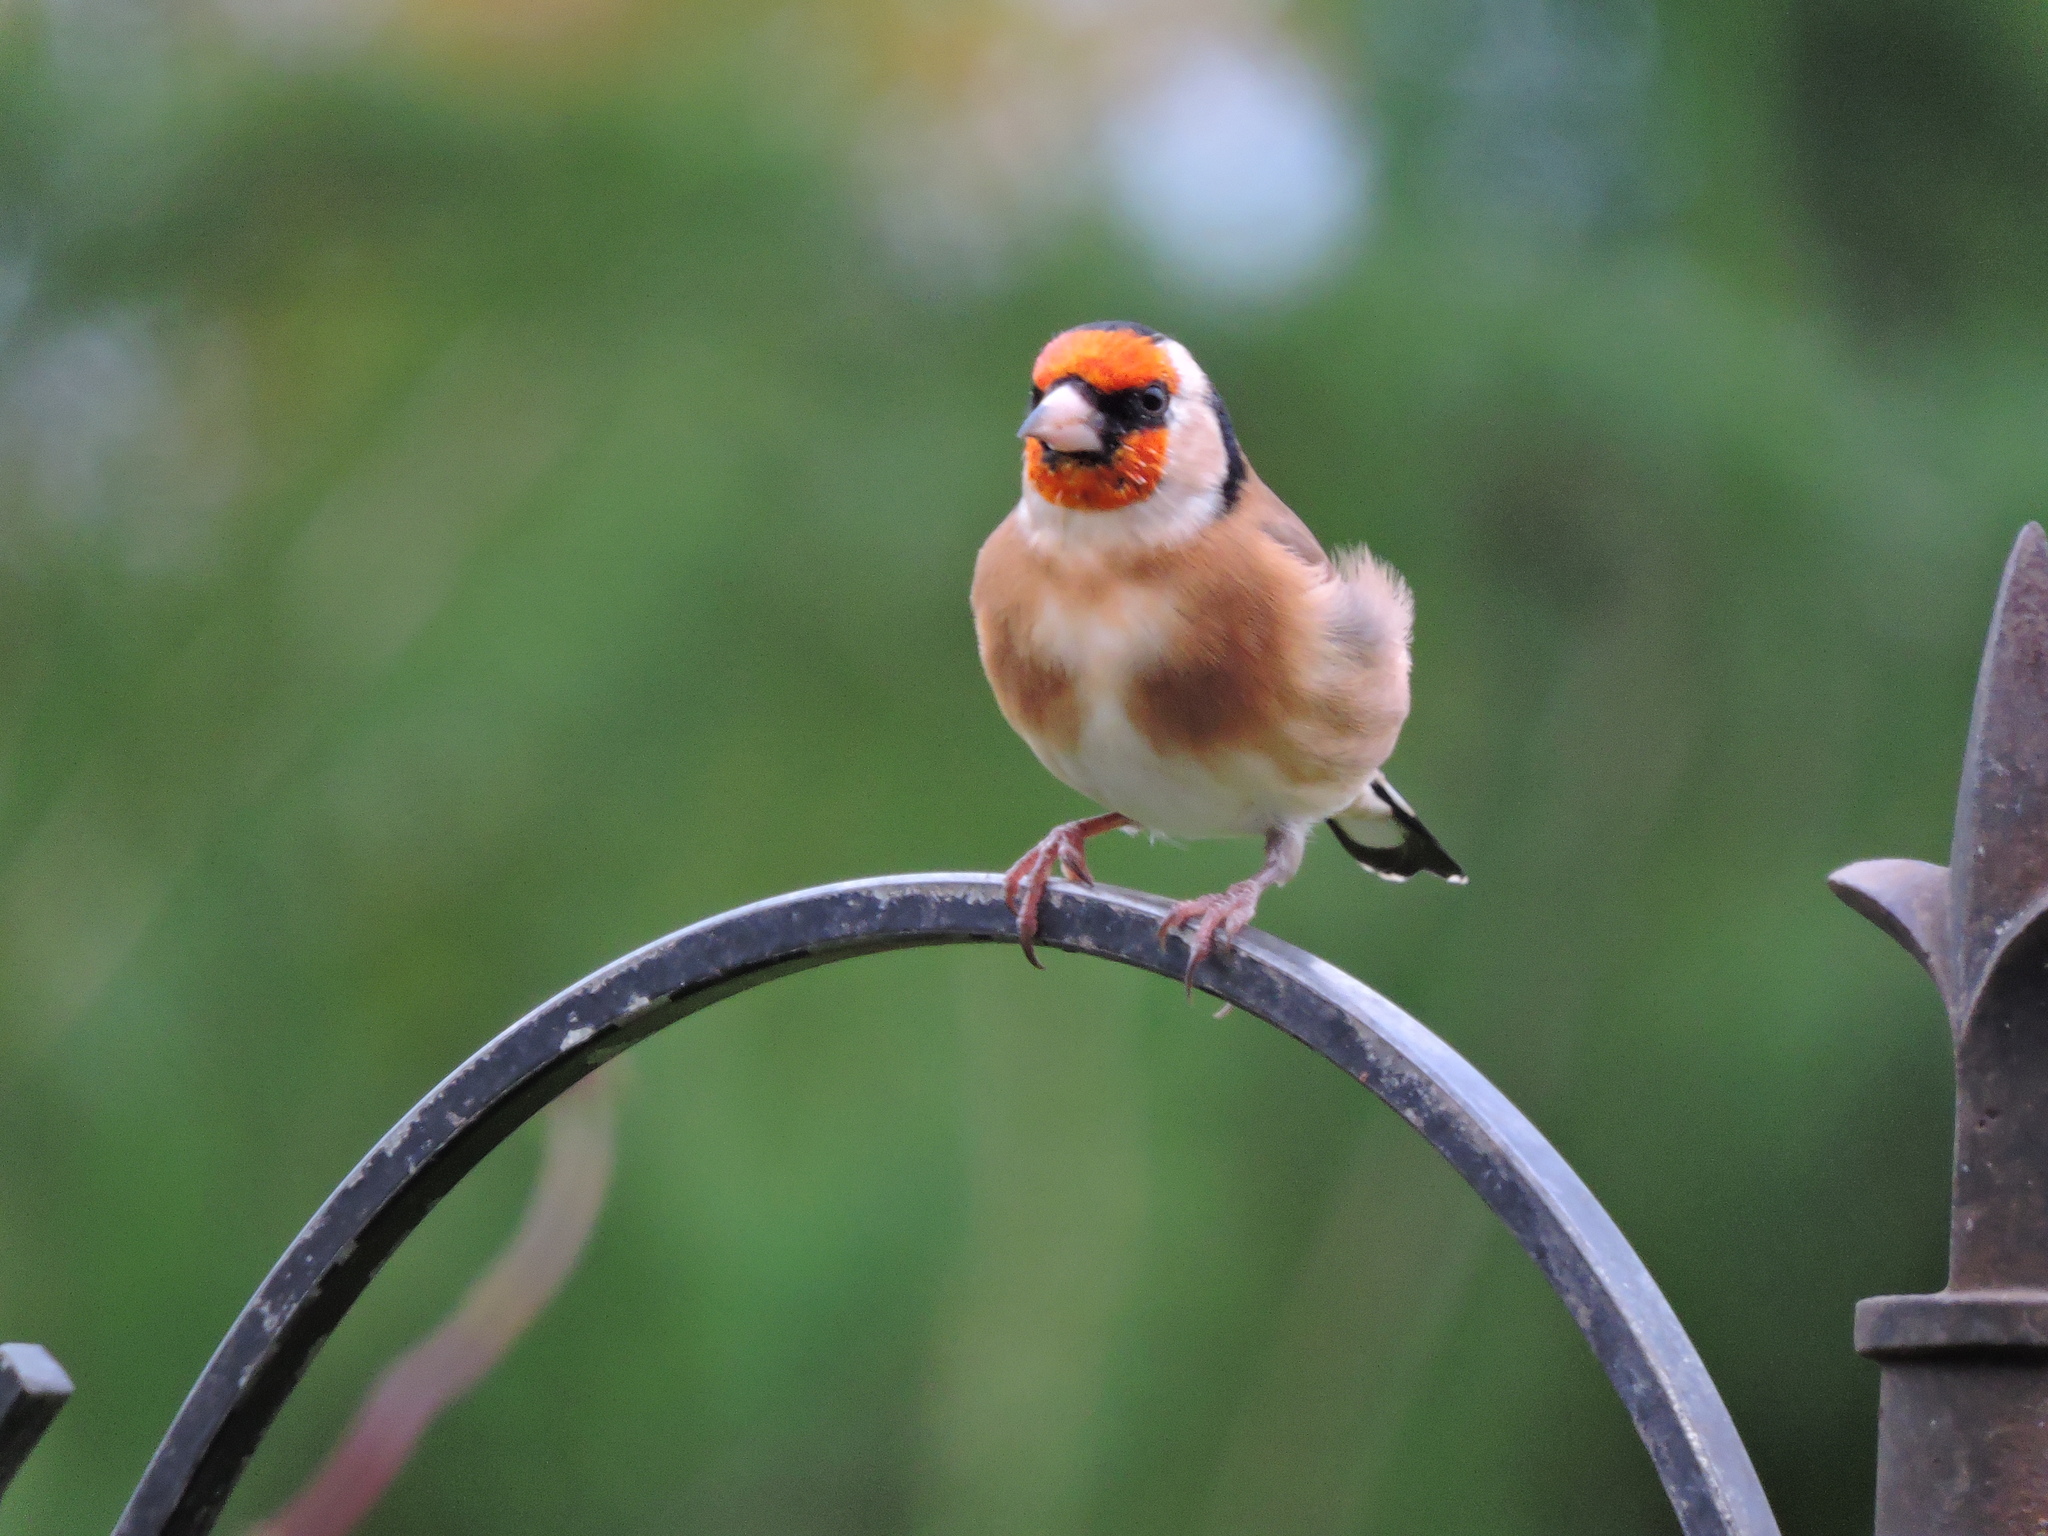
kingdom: Animalia
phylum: Chordata
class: Aves
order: Passeriformes
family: Fringillidae
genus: Carduelis
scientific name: Carduelis carduelis
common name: European goldfinch
